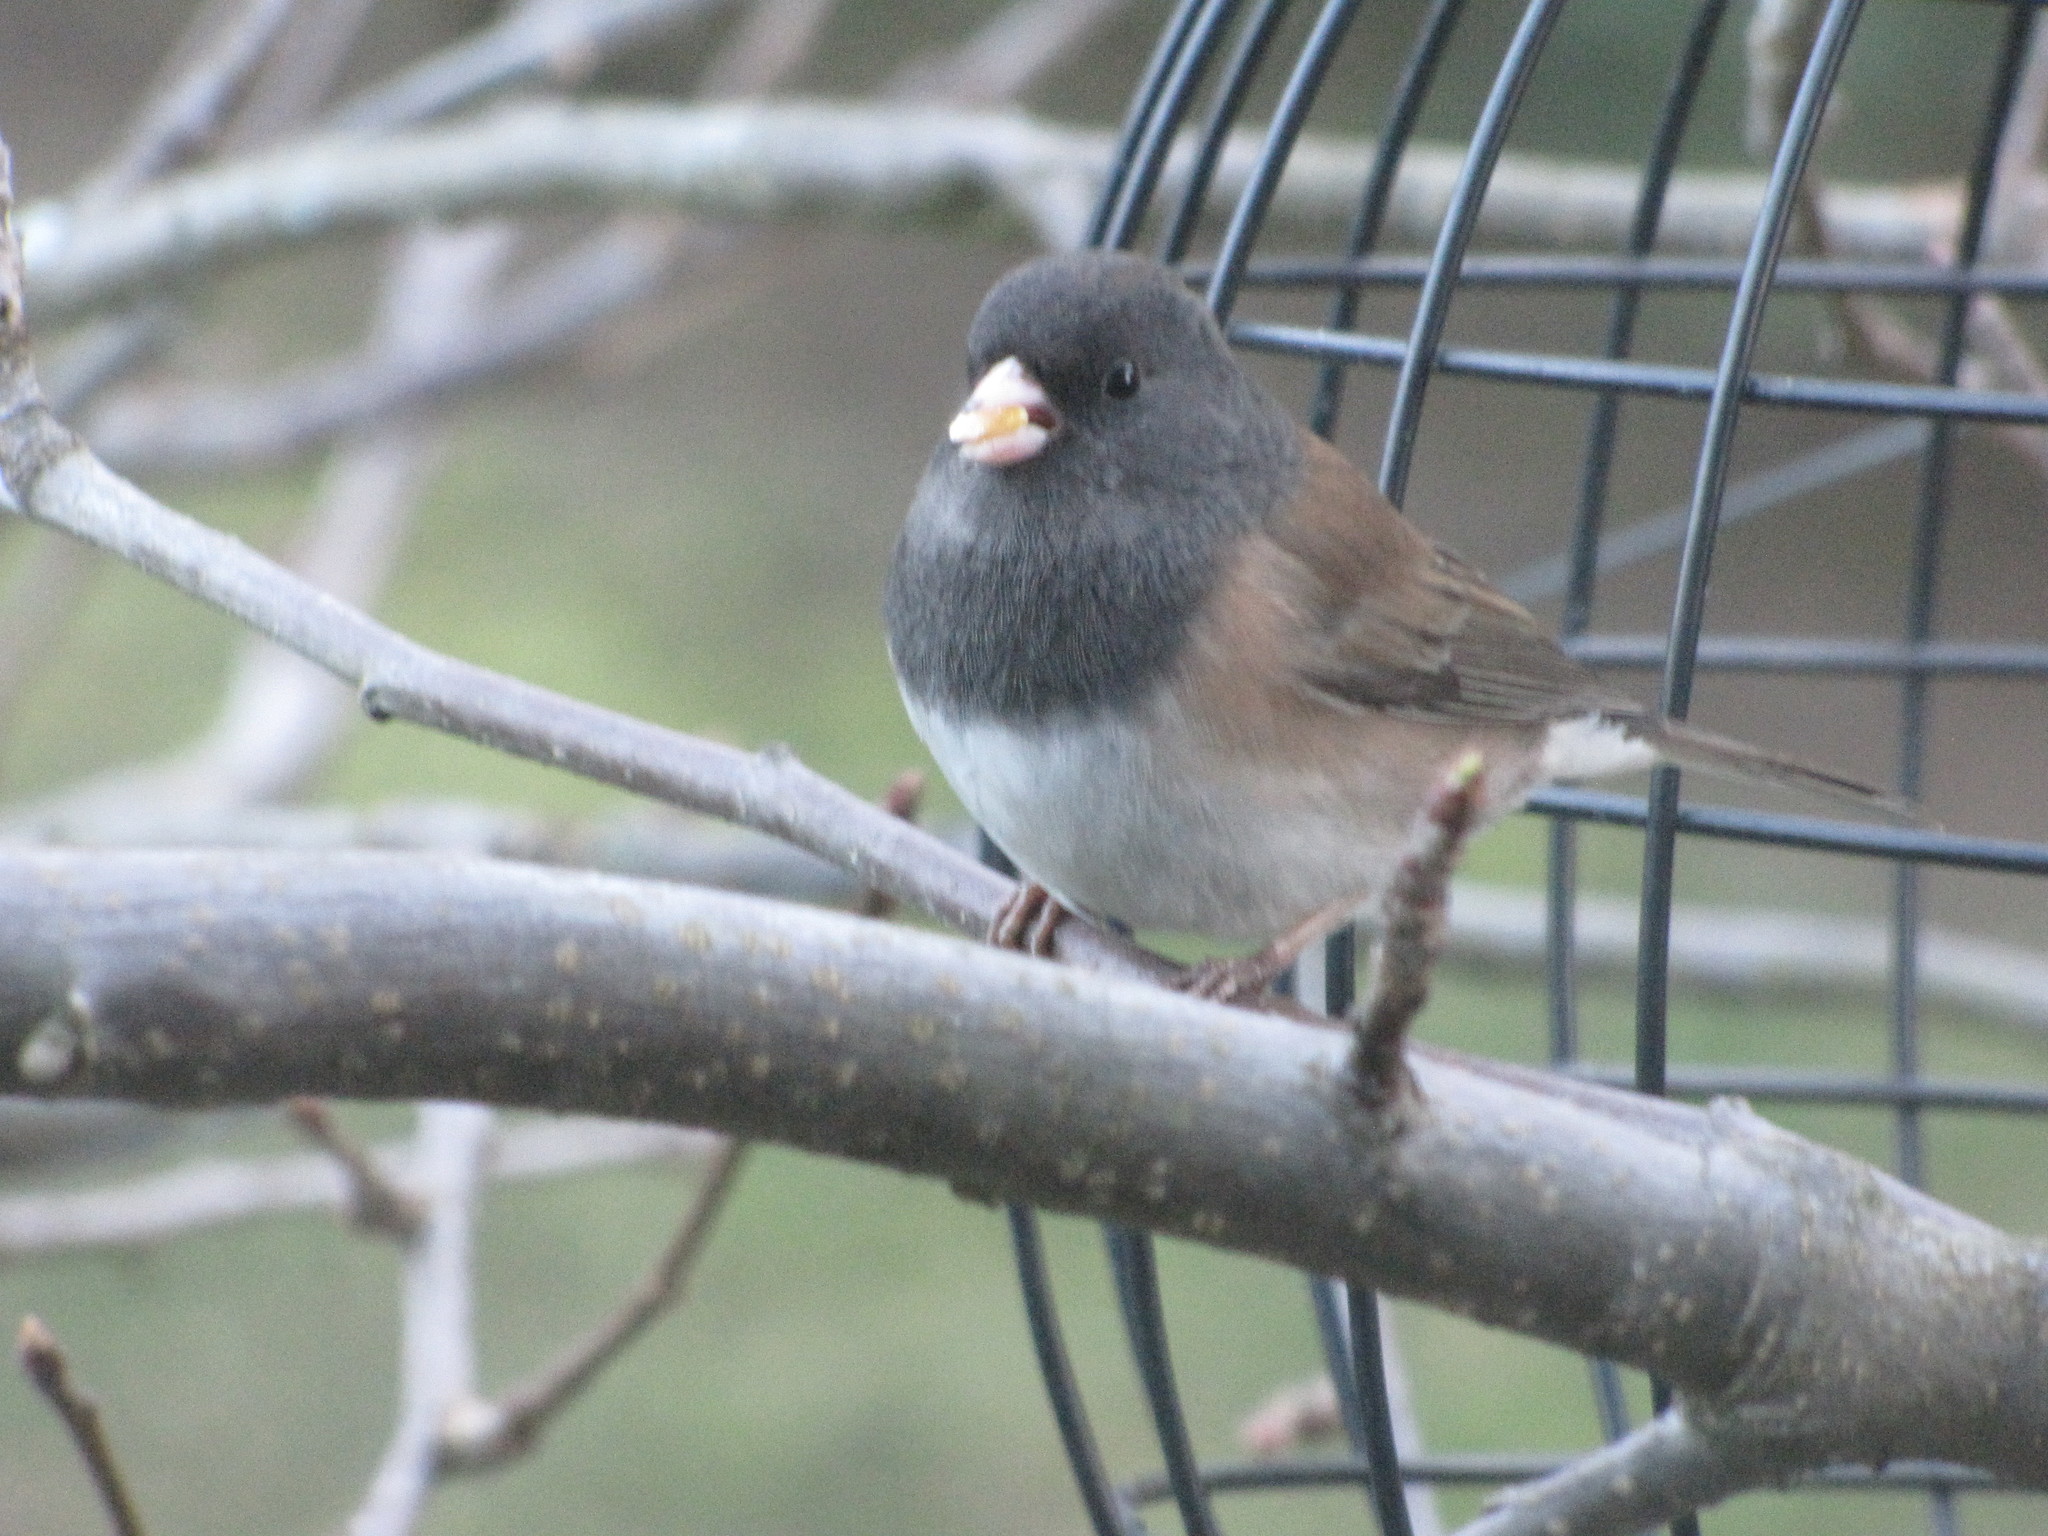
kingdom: Animalia
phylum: Chordata
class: Aves
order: Passeriformes
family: Passerellidae
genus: Junco
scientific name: Junco hyemalis
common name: Dark-eyed junco
